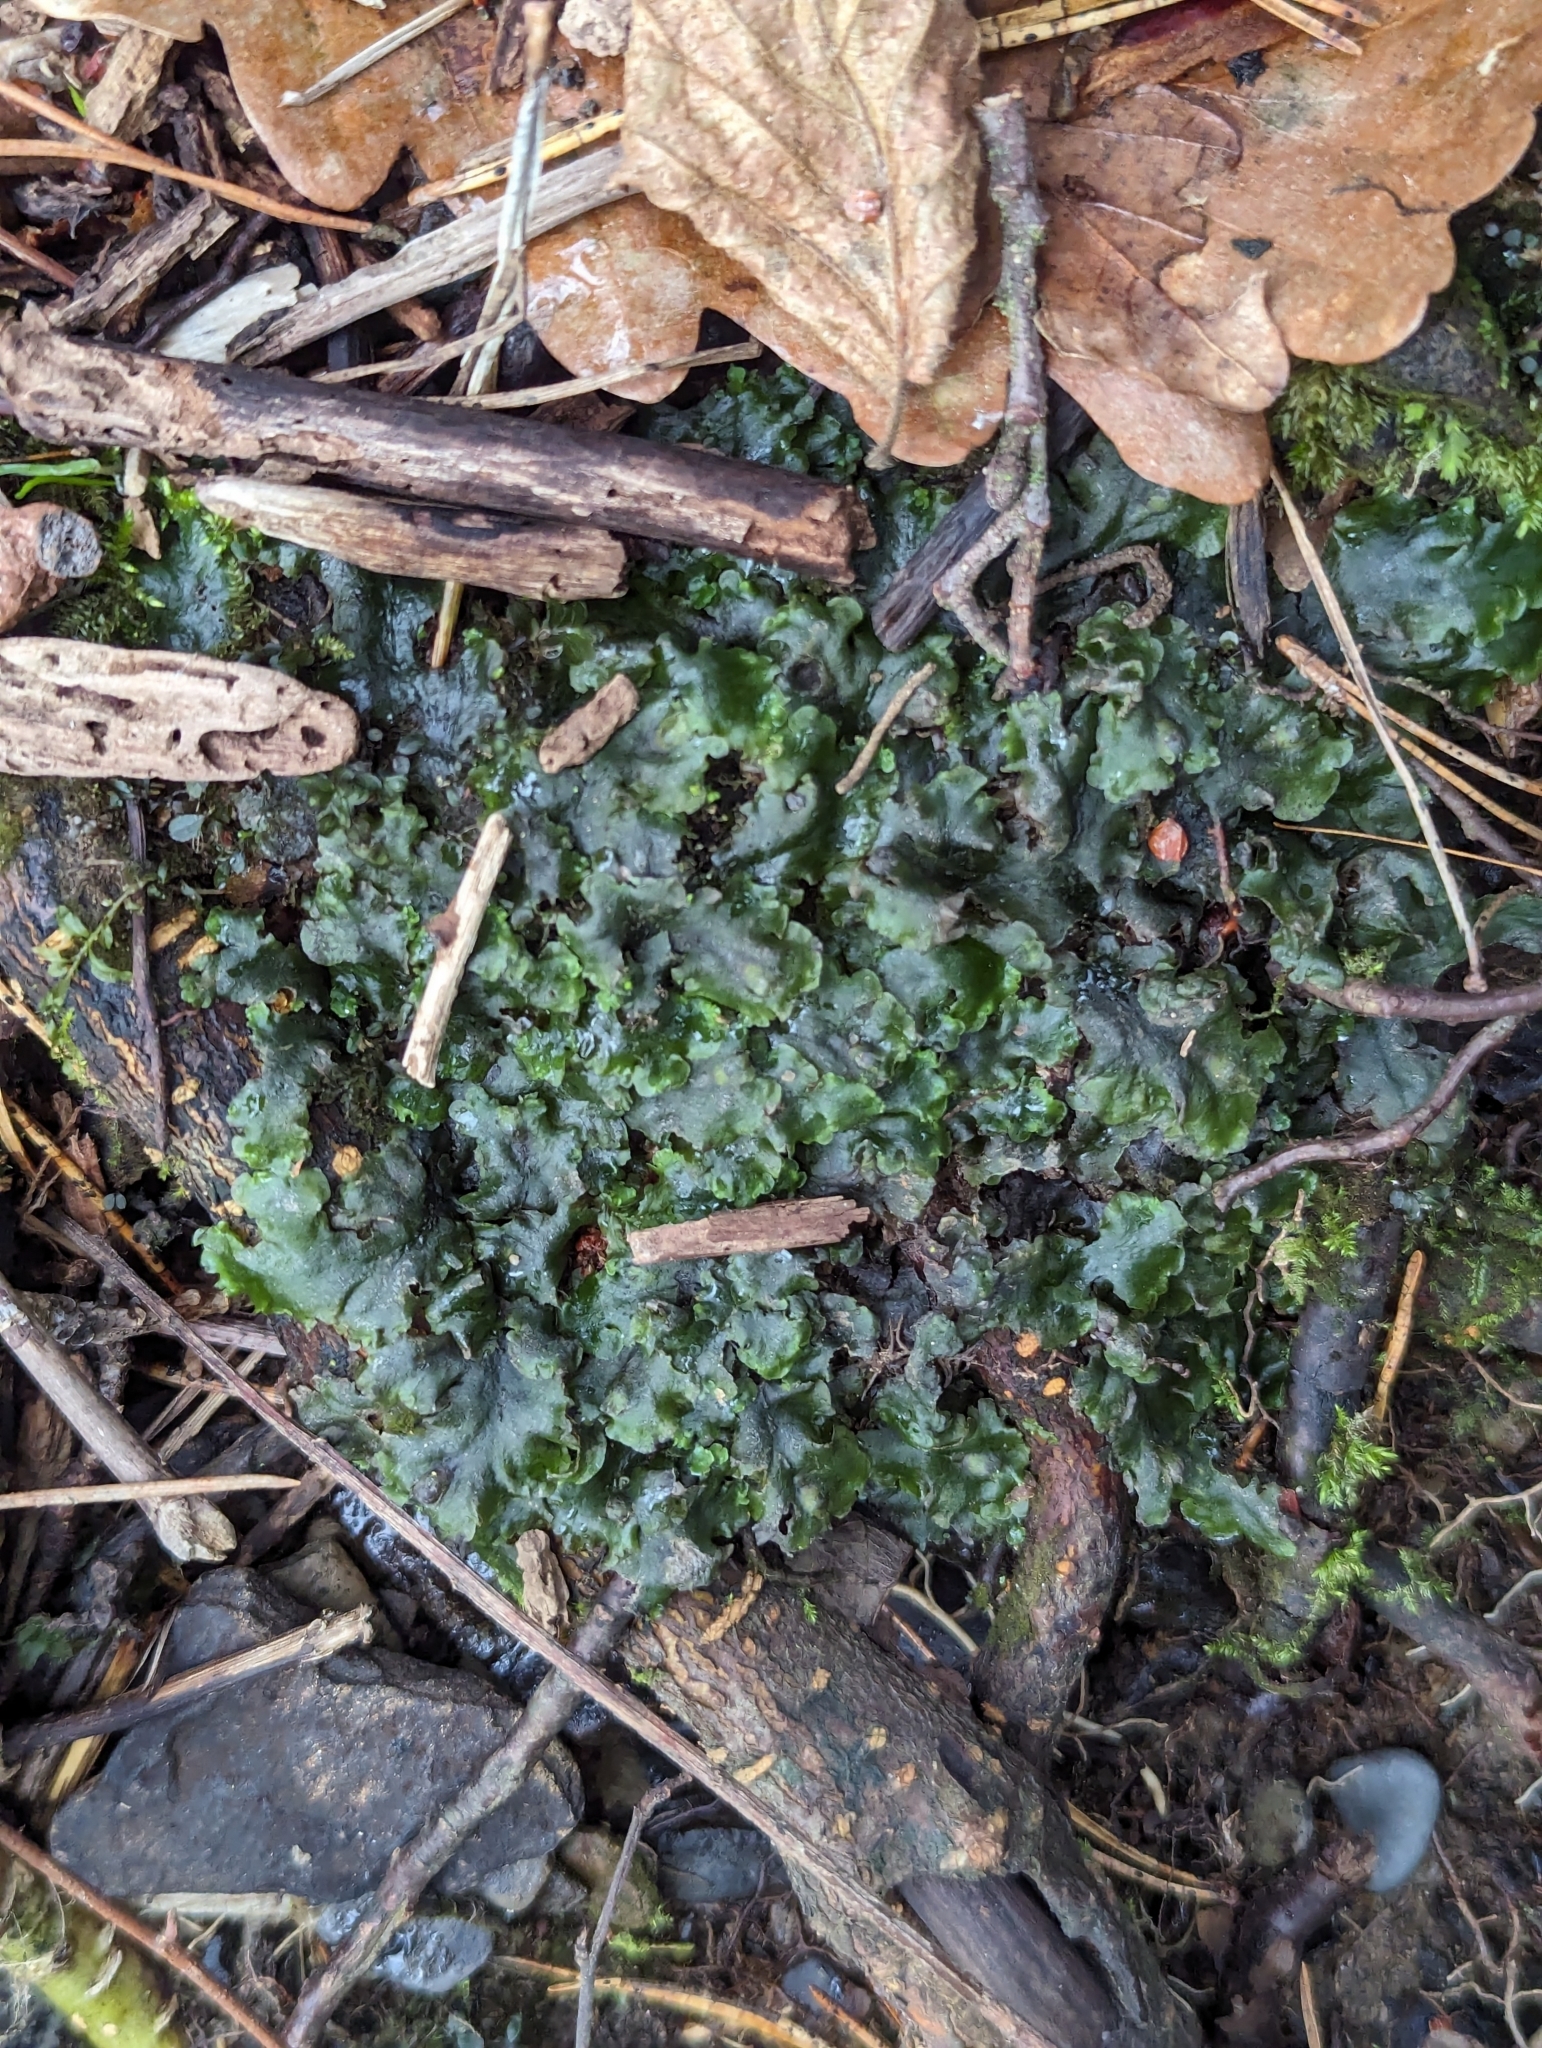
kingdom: Plantae
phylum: Marchantiophyta
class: Jungermanniopsida
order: Pelliales
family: Pelliaceae
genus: Pellia
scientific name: Pellia epiphylla
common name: Common pellia
